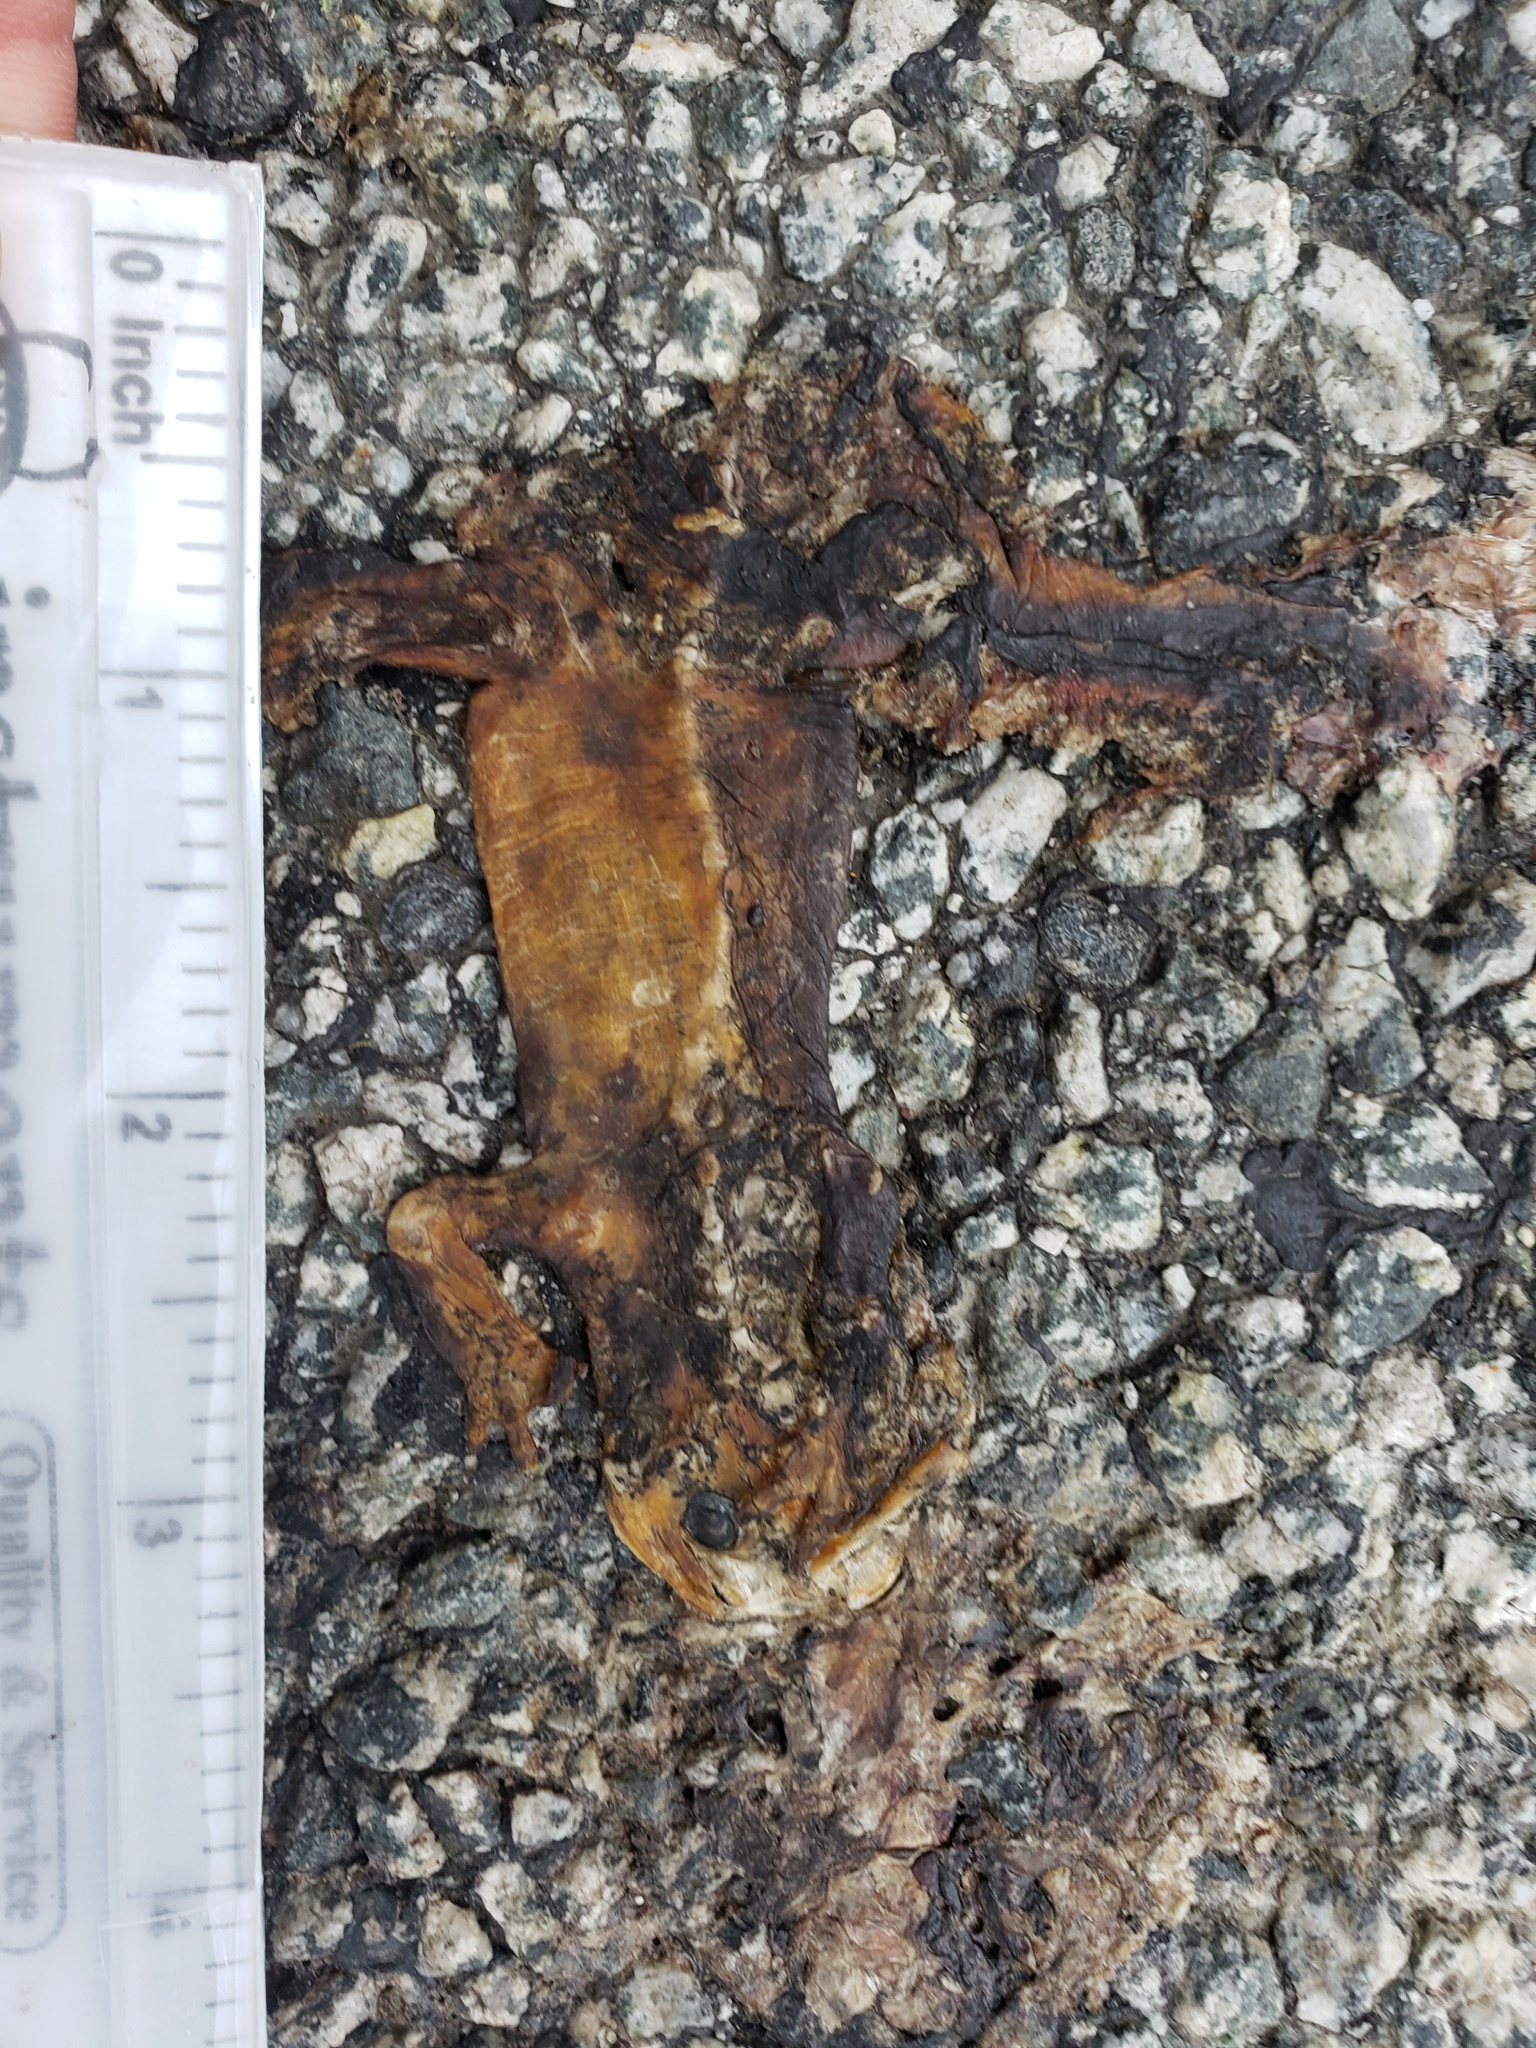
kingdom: Animalia
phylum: Chordata
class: Amphibia
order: Caudata
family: Salamandridae
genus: Taricha
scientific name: Taricha
